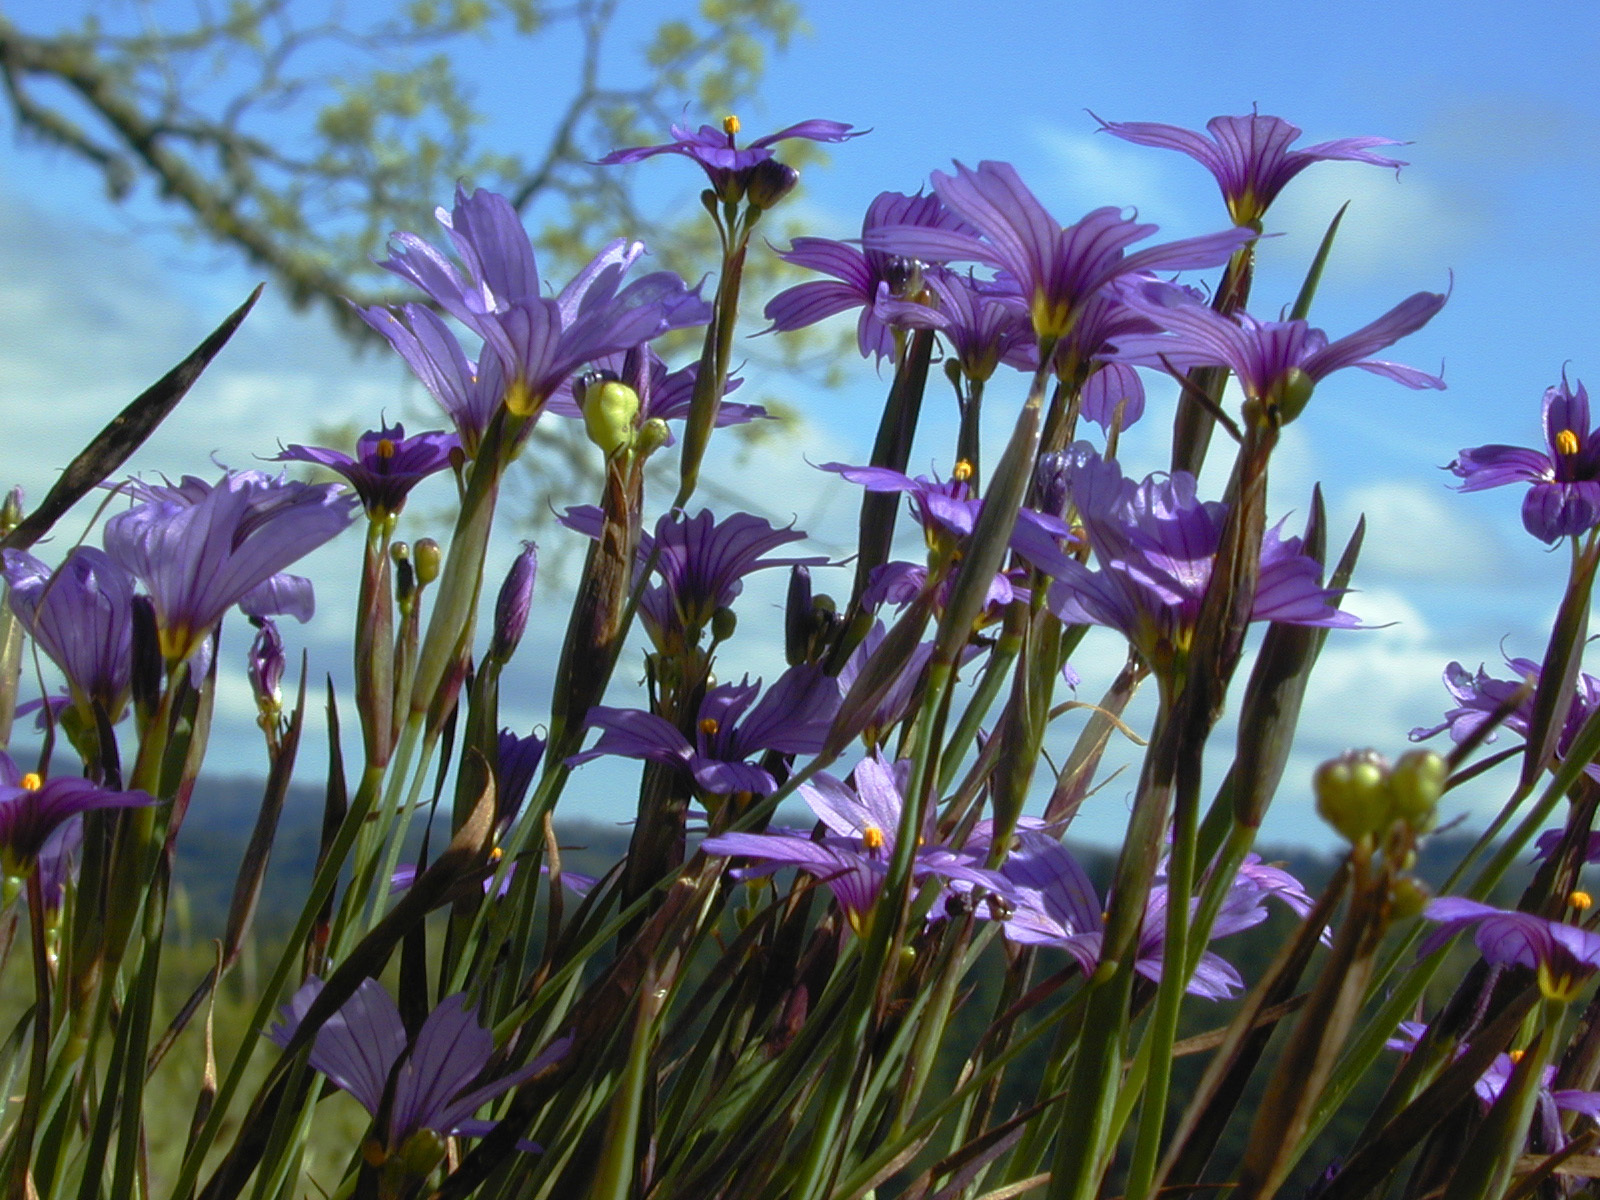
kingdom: Plantae
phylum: Tracheophyta
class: Liliopsida
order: Asparagales
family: Iridaceae
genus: Sisyrinchium
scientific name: Sisyrinchium bellum
